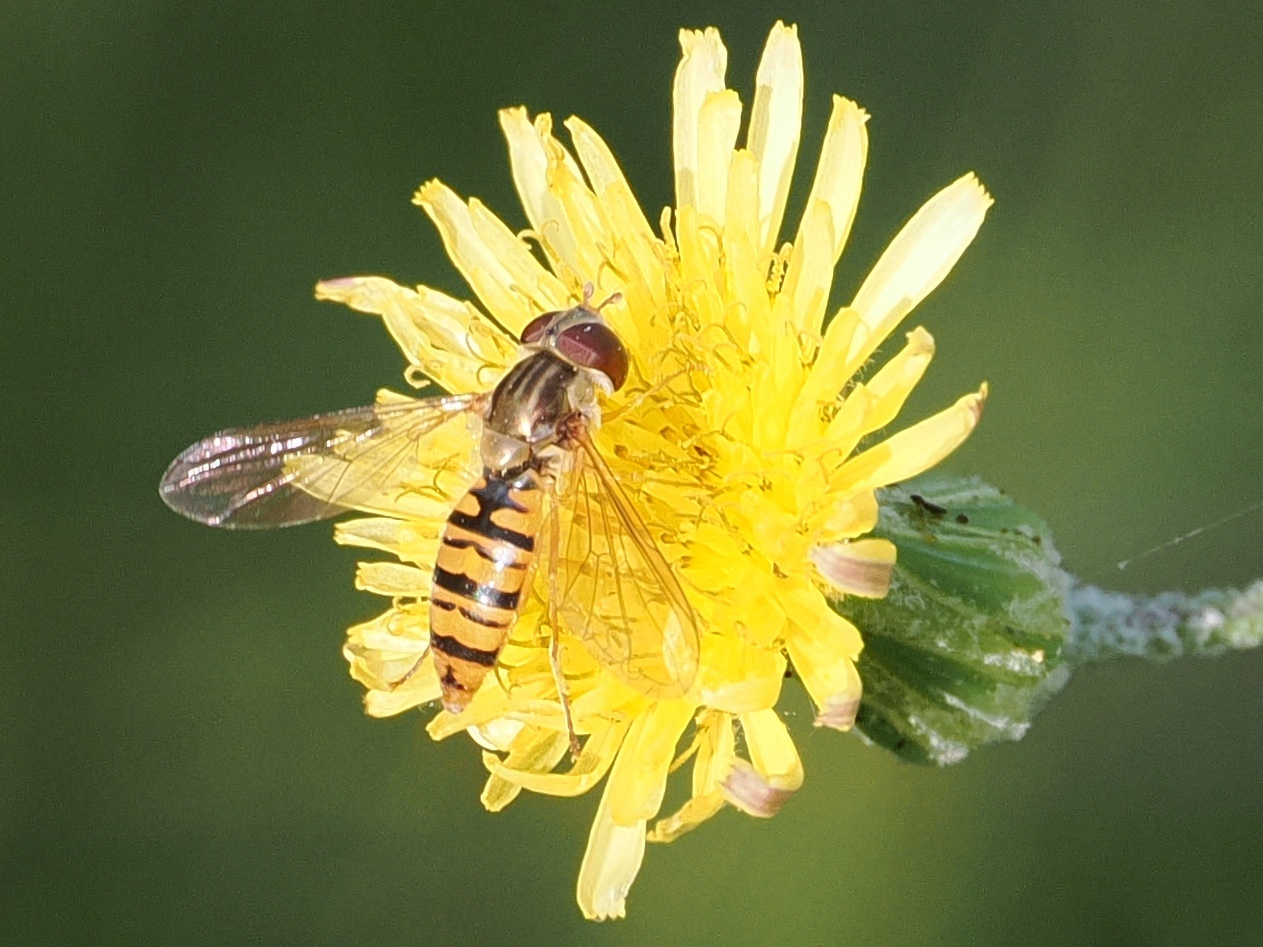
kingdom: Animalia
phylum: Arthropoda
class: Insecta
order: Diptera
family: Syrphidae
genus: Episyrphus
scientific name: Episyrphus balteatus
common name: Marmalade hoverfly
